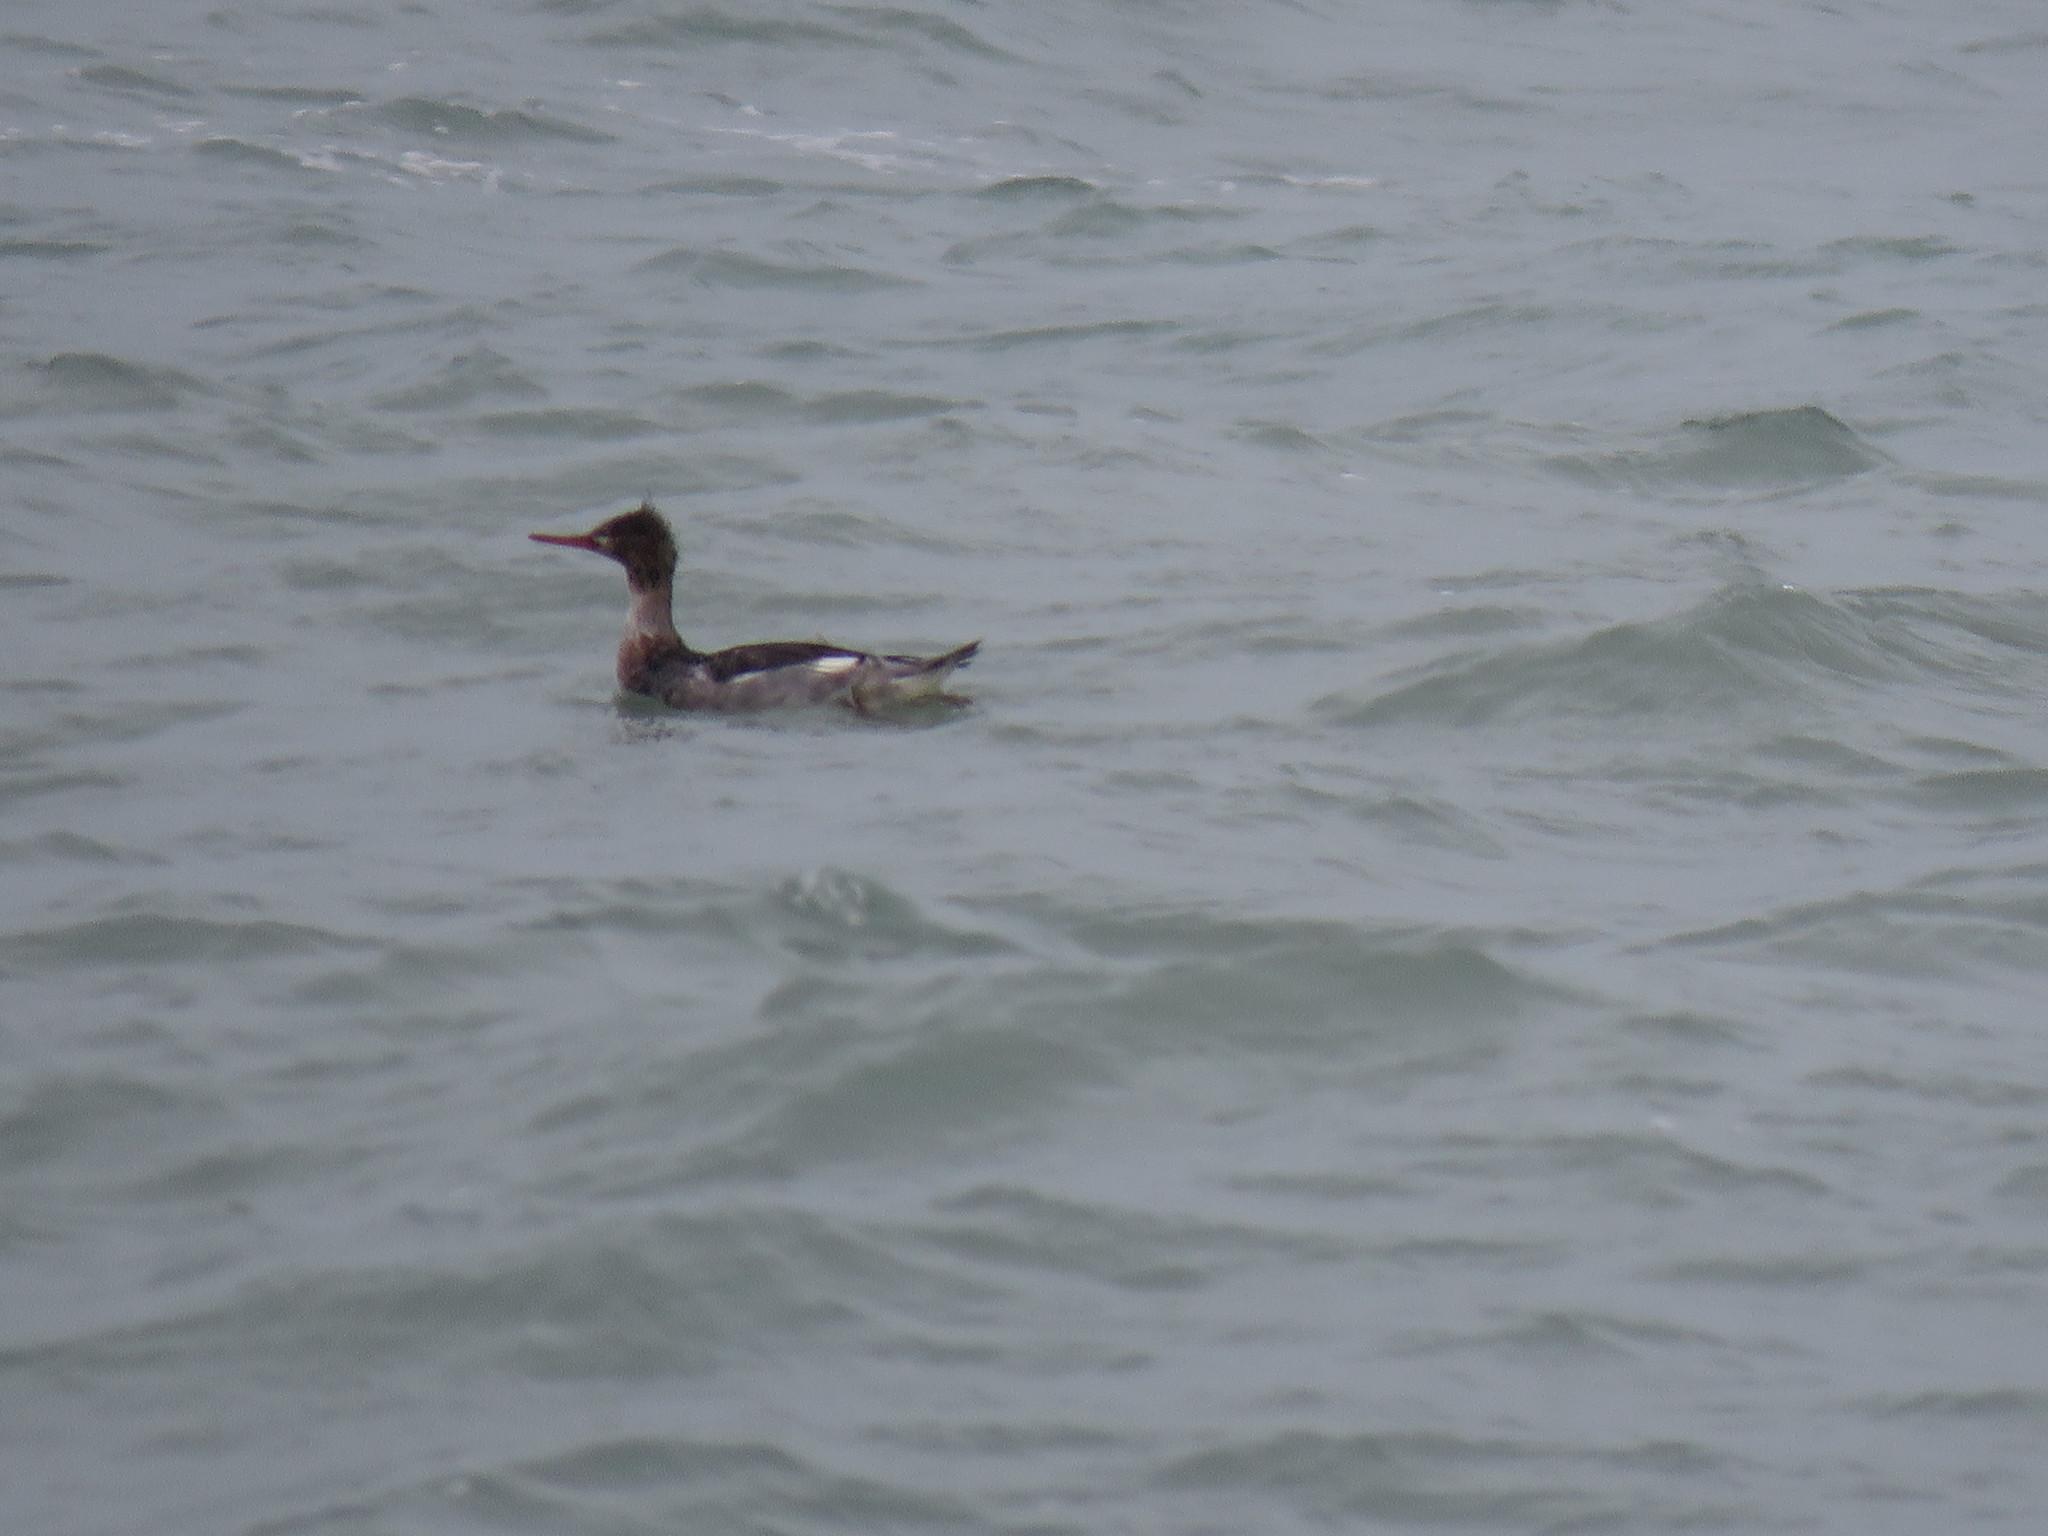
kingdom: Animalia
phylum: Chordata
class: Aves
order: Anseriformes
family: Anatidae
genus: Mergus
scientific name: Mergus serrator
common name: Red-breasted merganser
